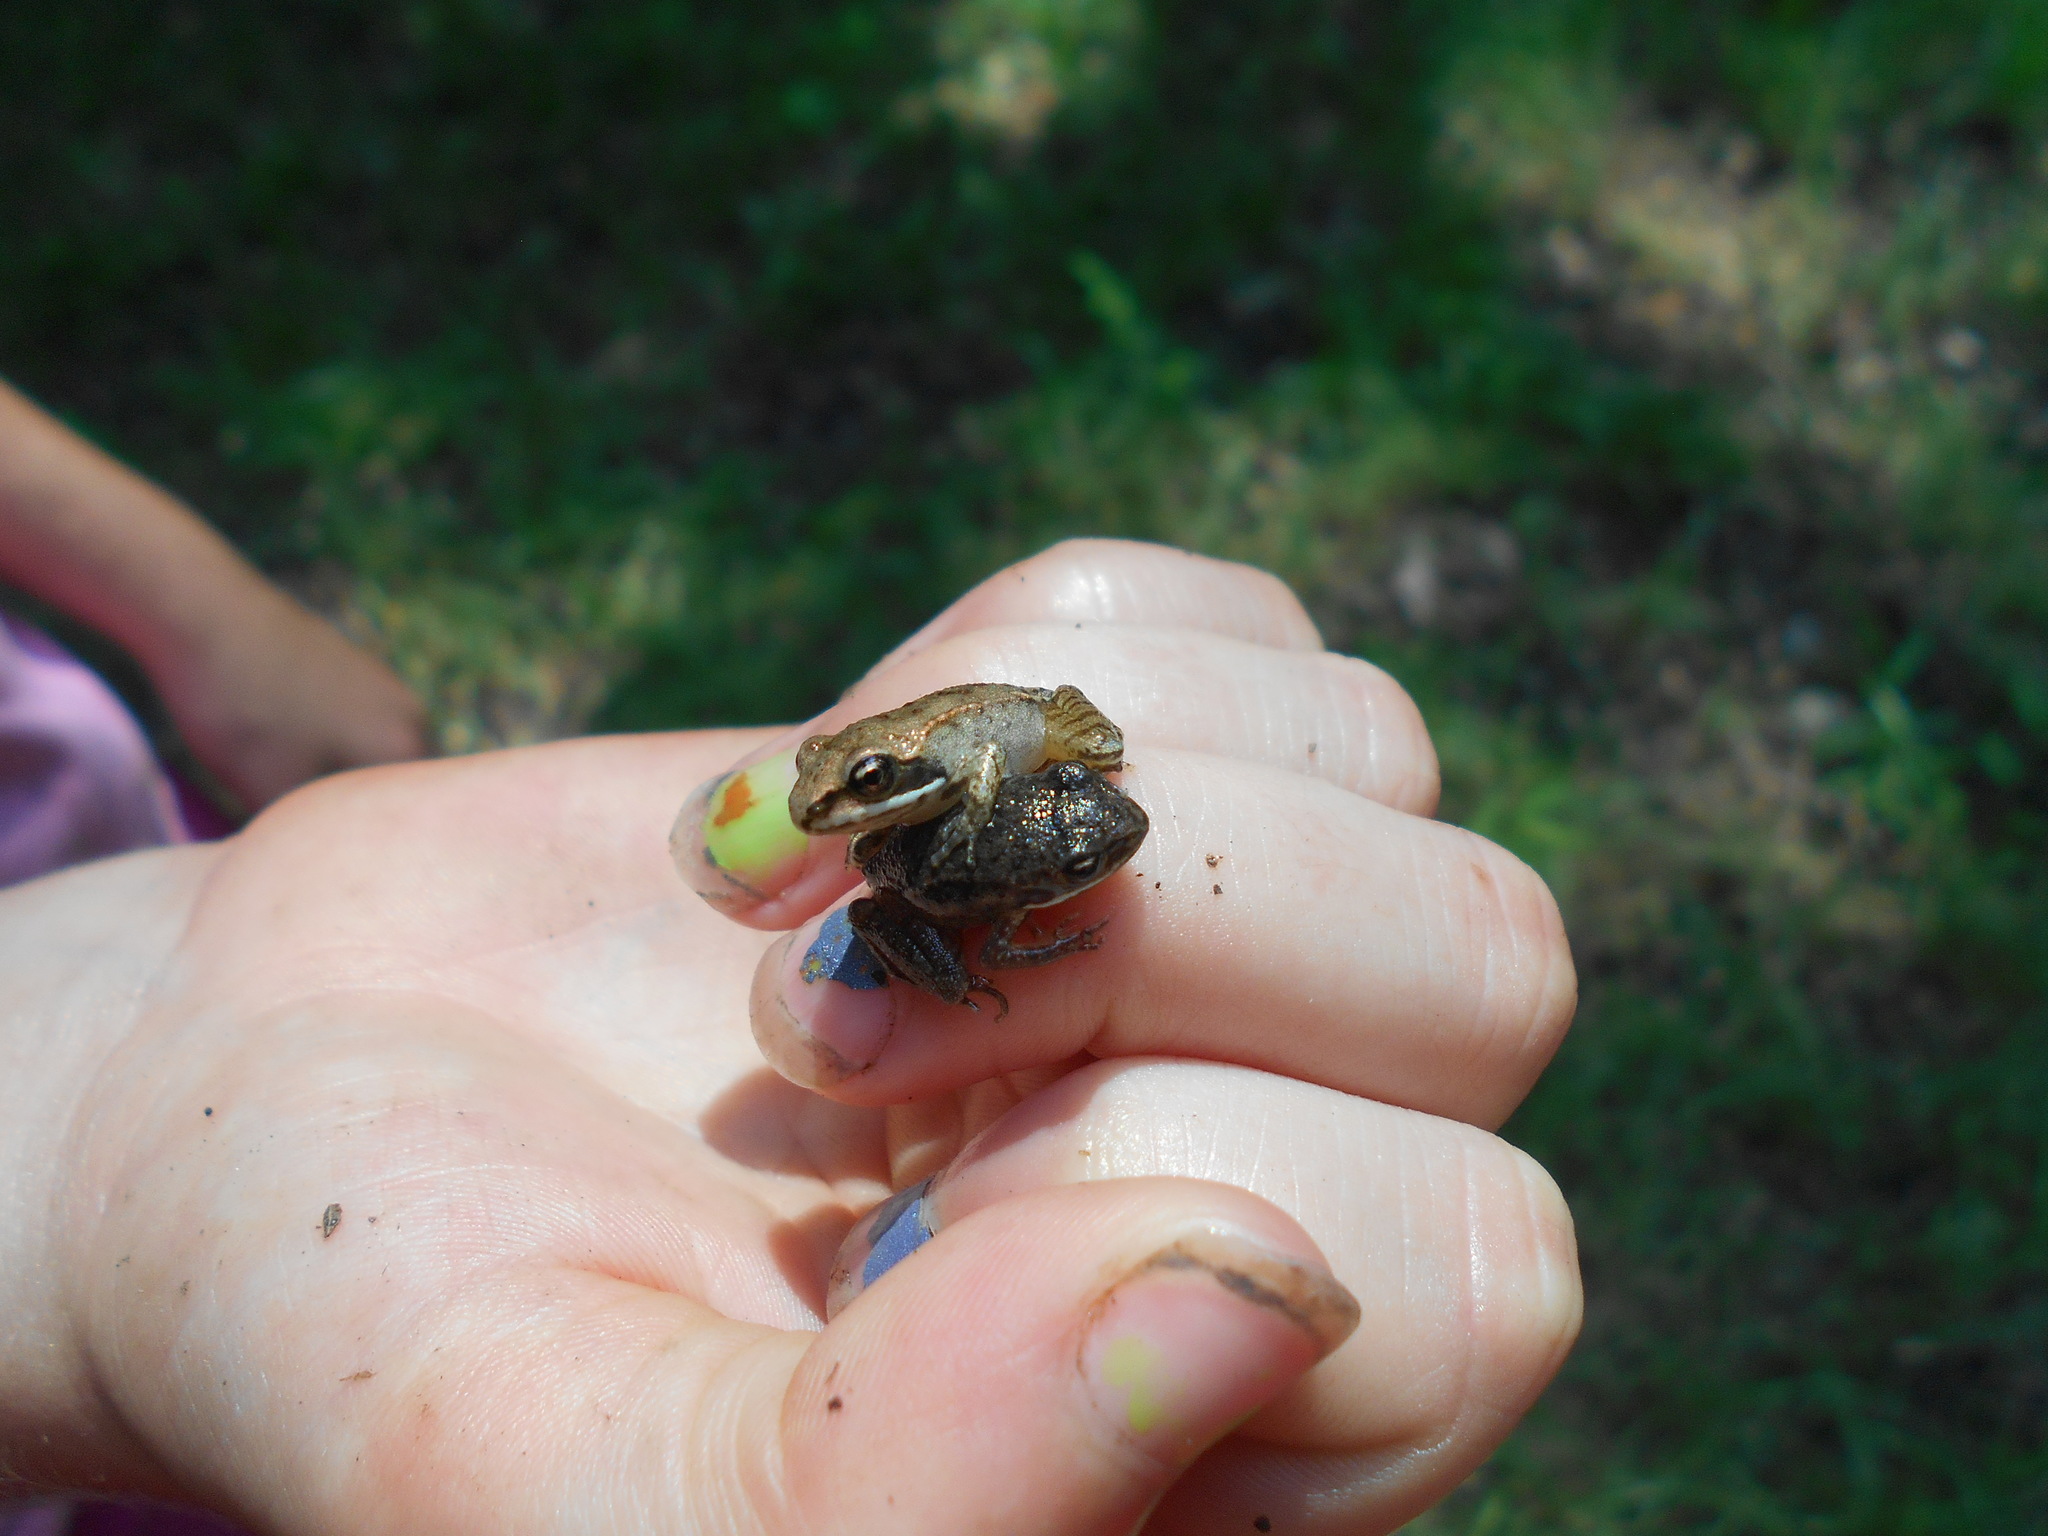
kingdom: Animalia
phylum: Chordata
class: Amphibia
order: Anura
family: Ranidae
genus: Lithobates
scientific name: Lithobates sylvaticus
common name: Wood frog
